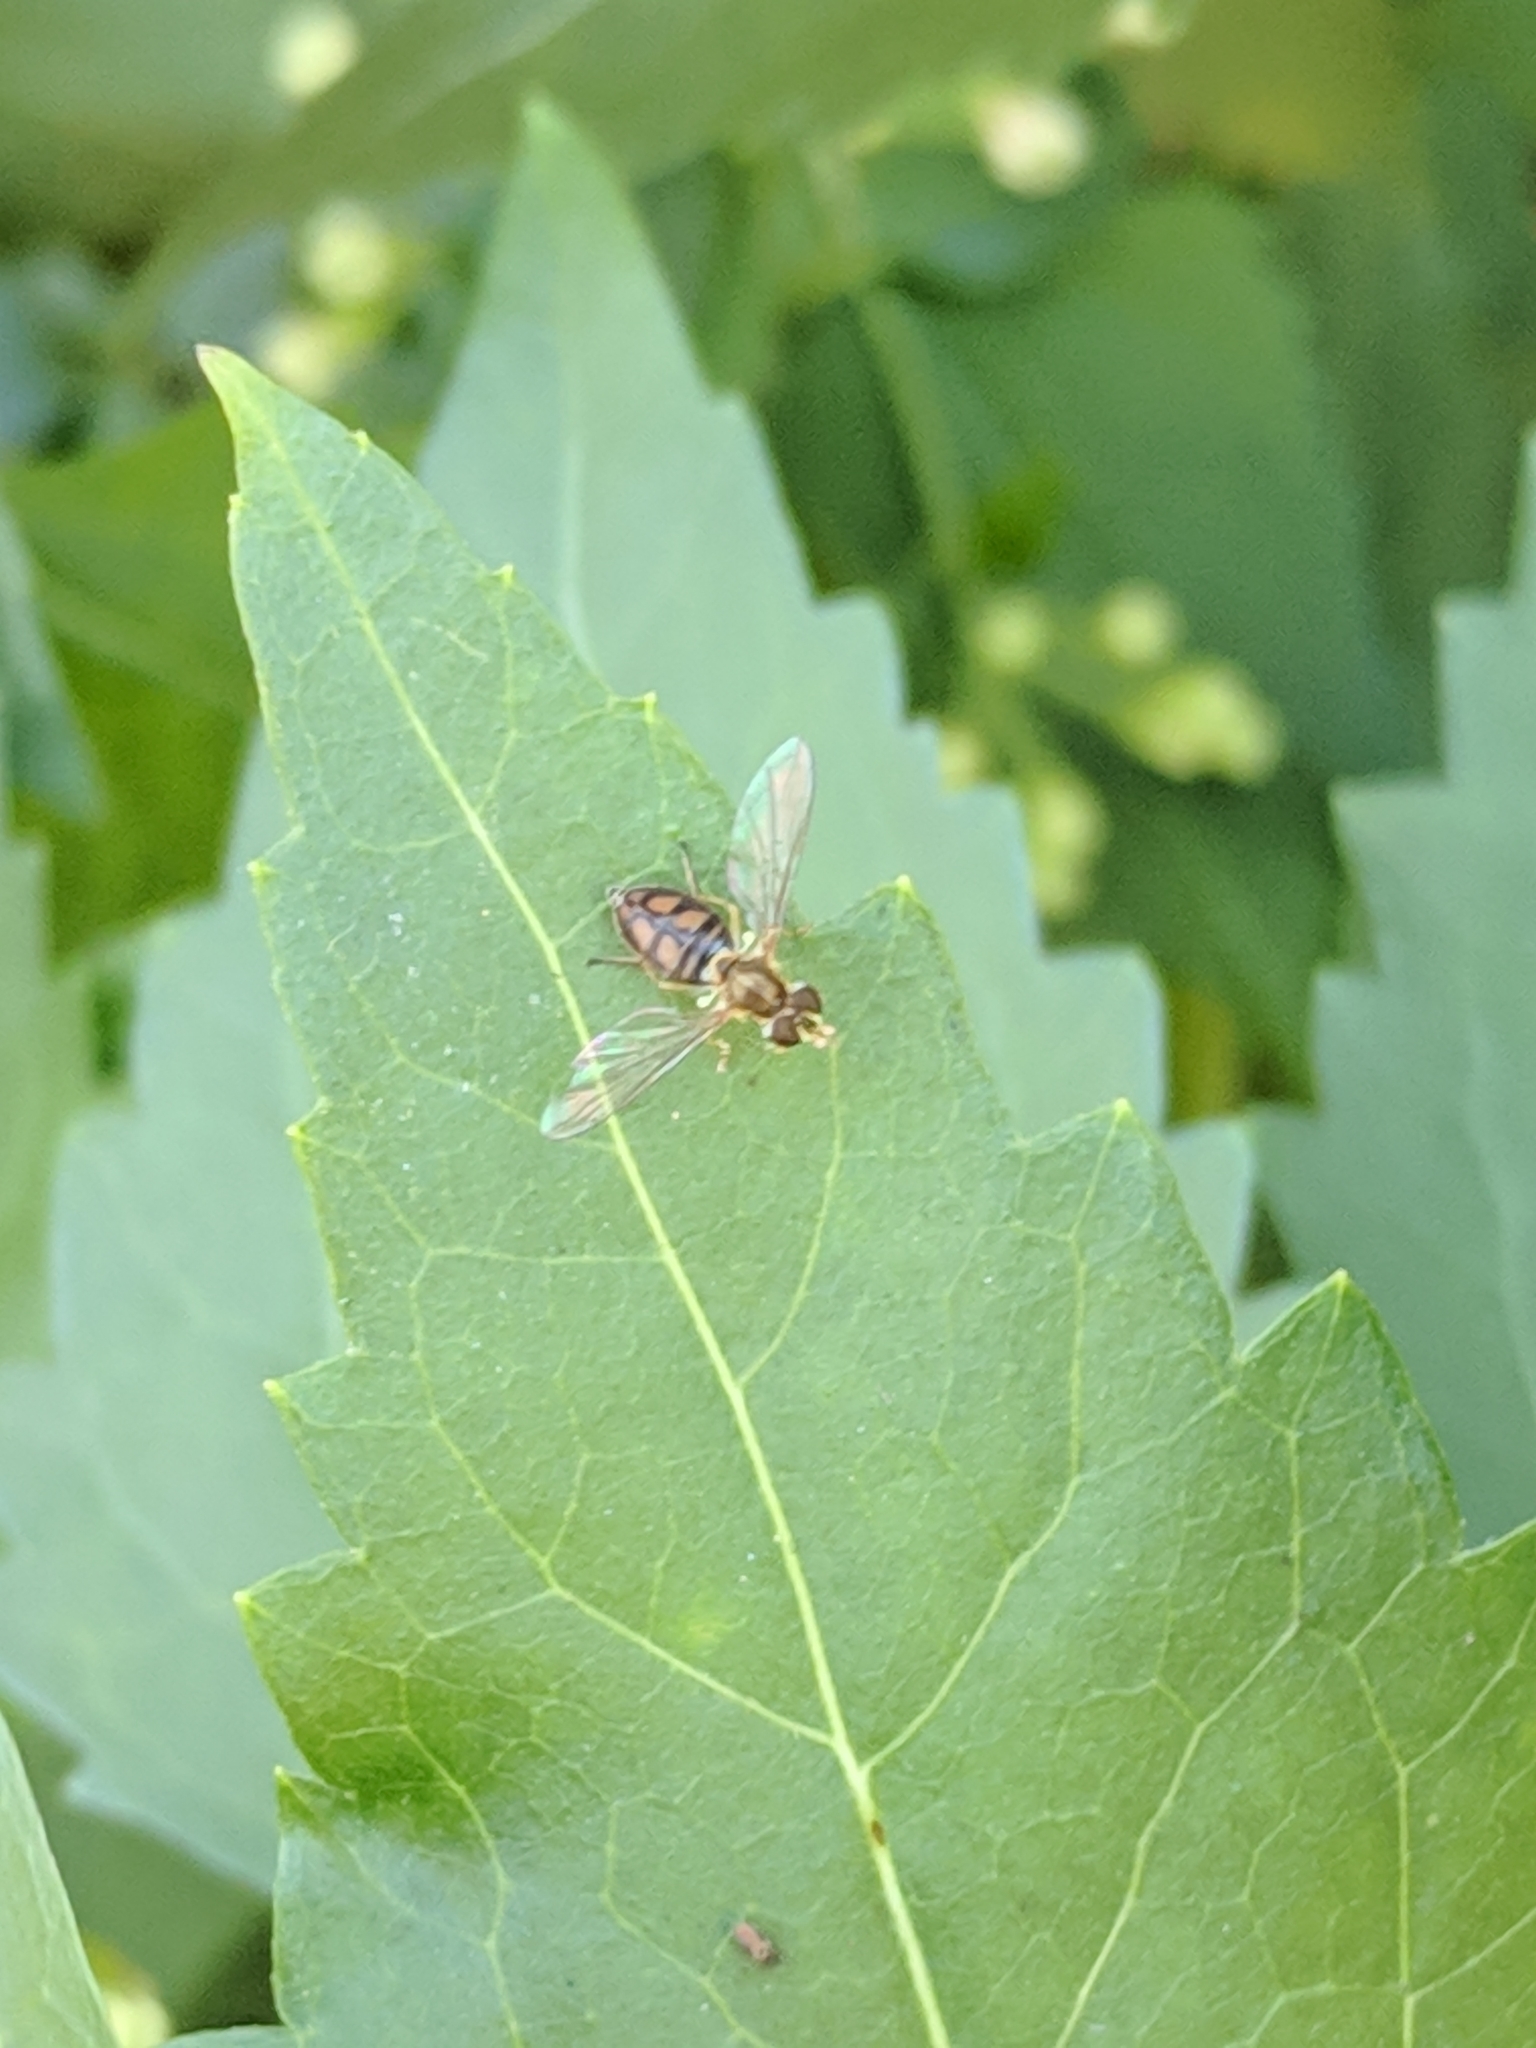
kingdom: Animalia
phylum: Arthropoda
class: Insecta
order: Diptera
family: Syrphidae
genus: Toxomerus
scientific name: Toxomerus marginatus
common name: Syrphid fly
